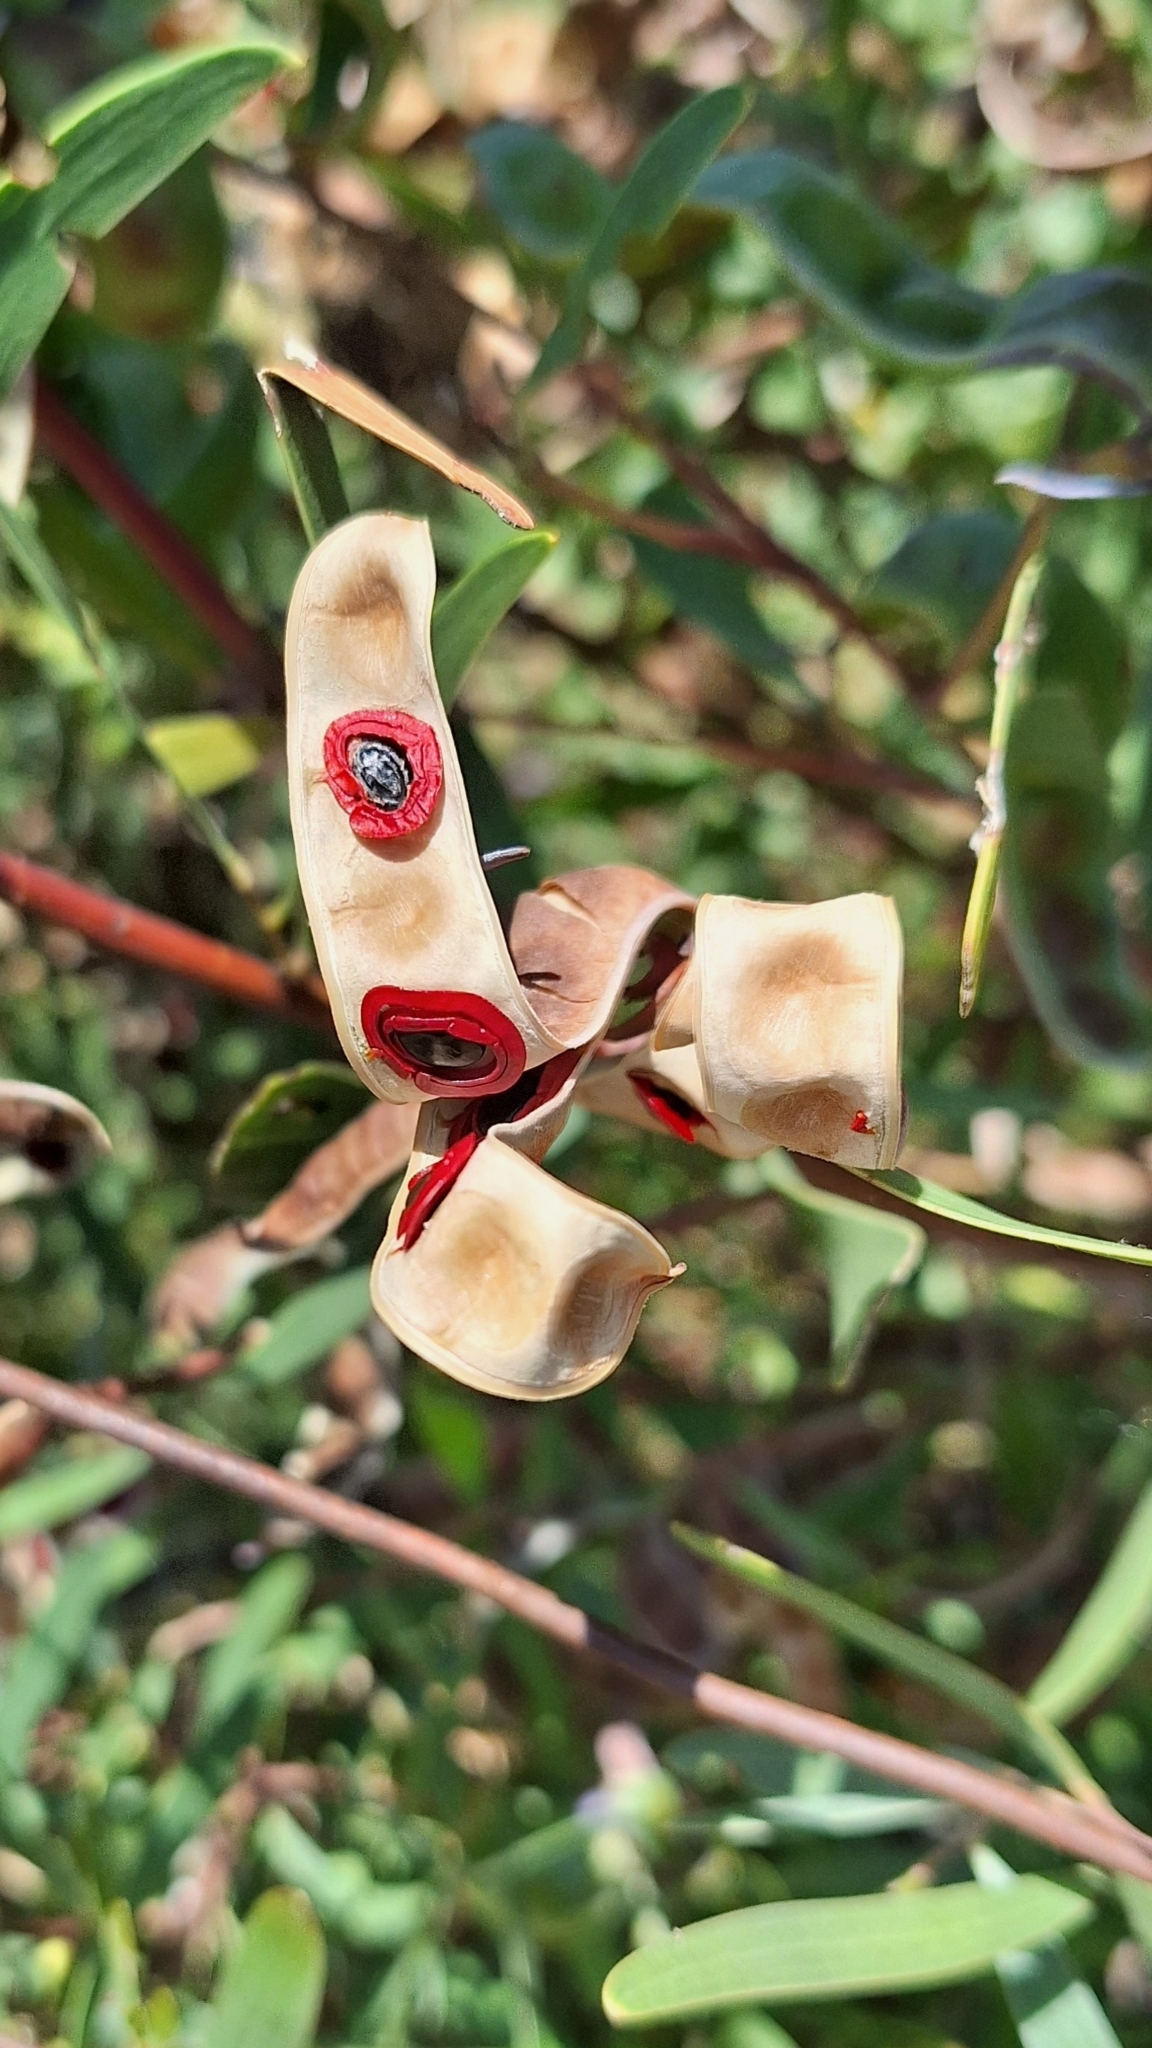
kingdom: Plantae
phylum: Tracheophyta
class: Magnoliopsida
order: Fabales
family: Fabaceae
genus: Acacia
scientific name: Acacia cyclops
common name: Coastal wattle
